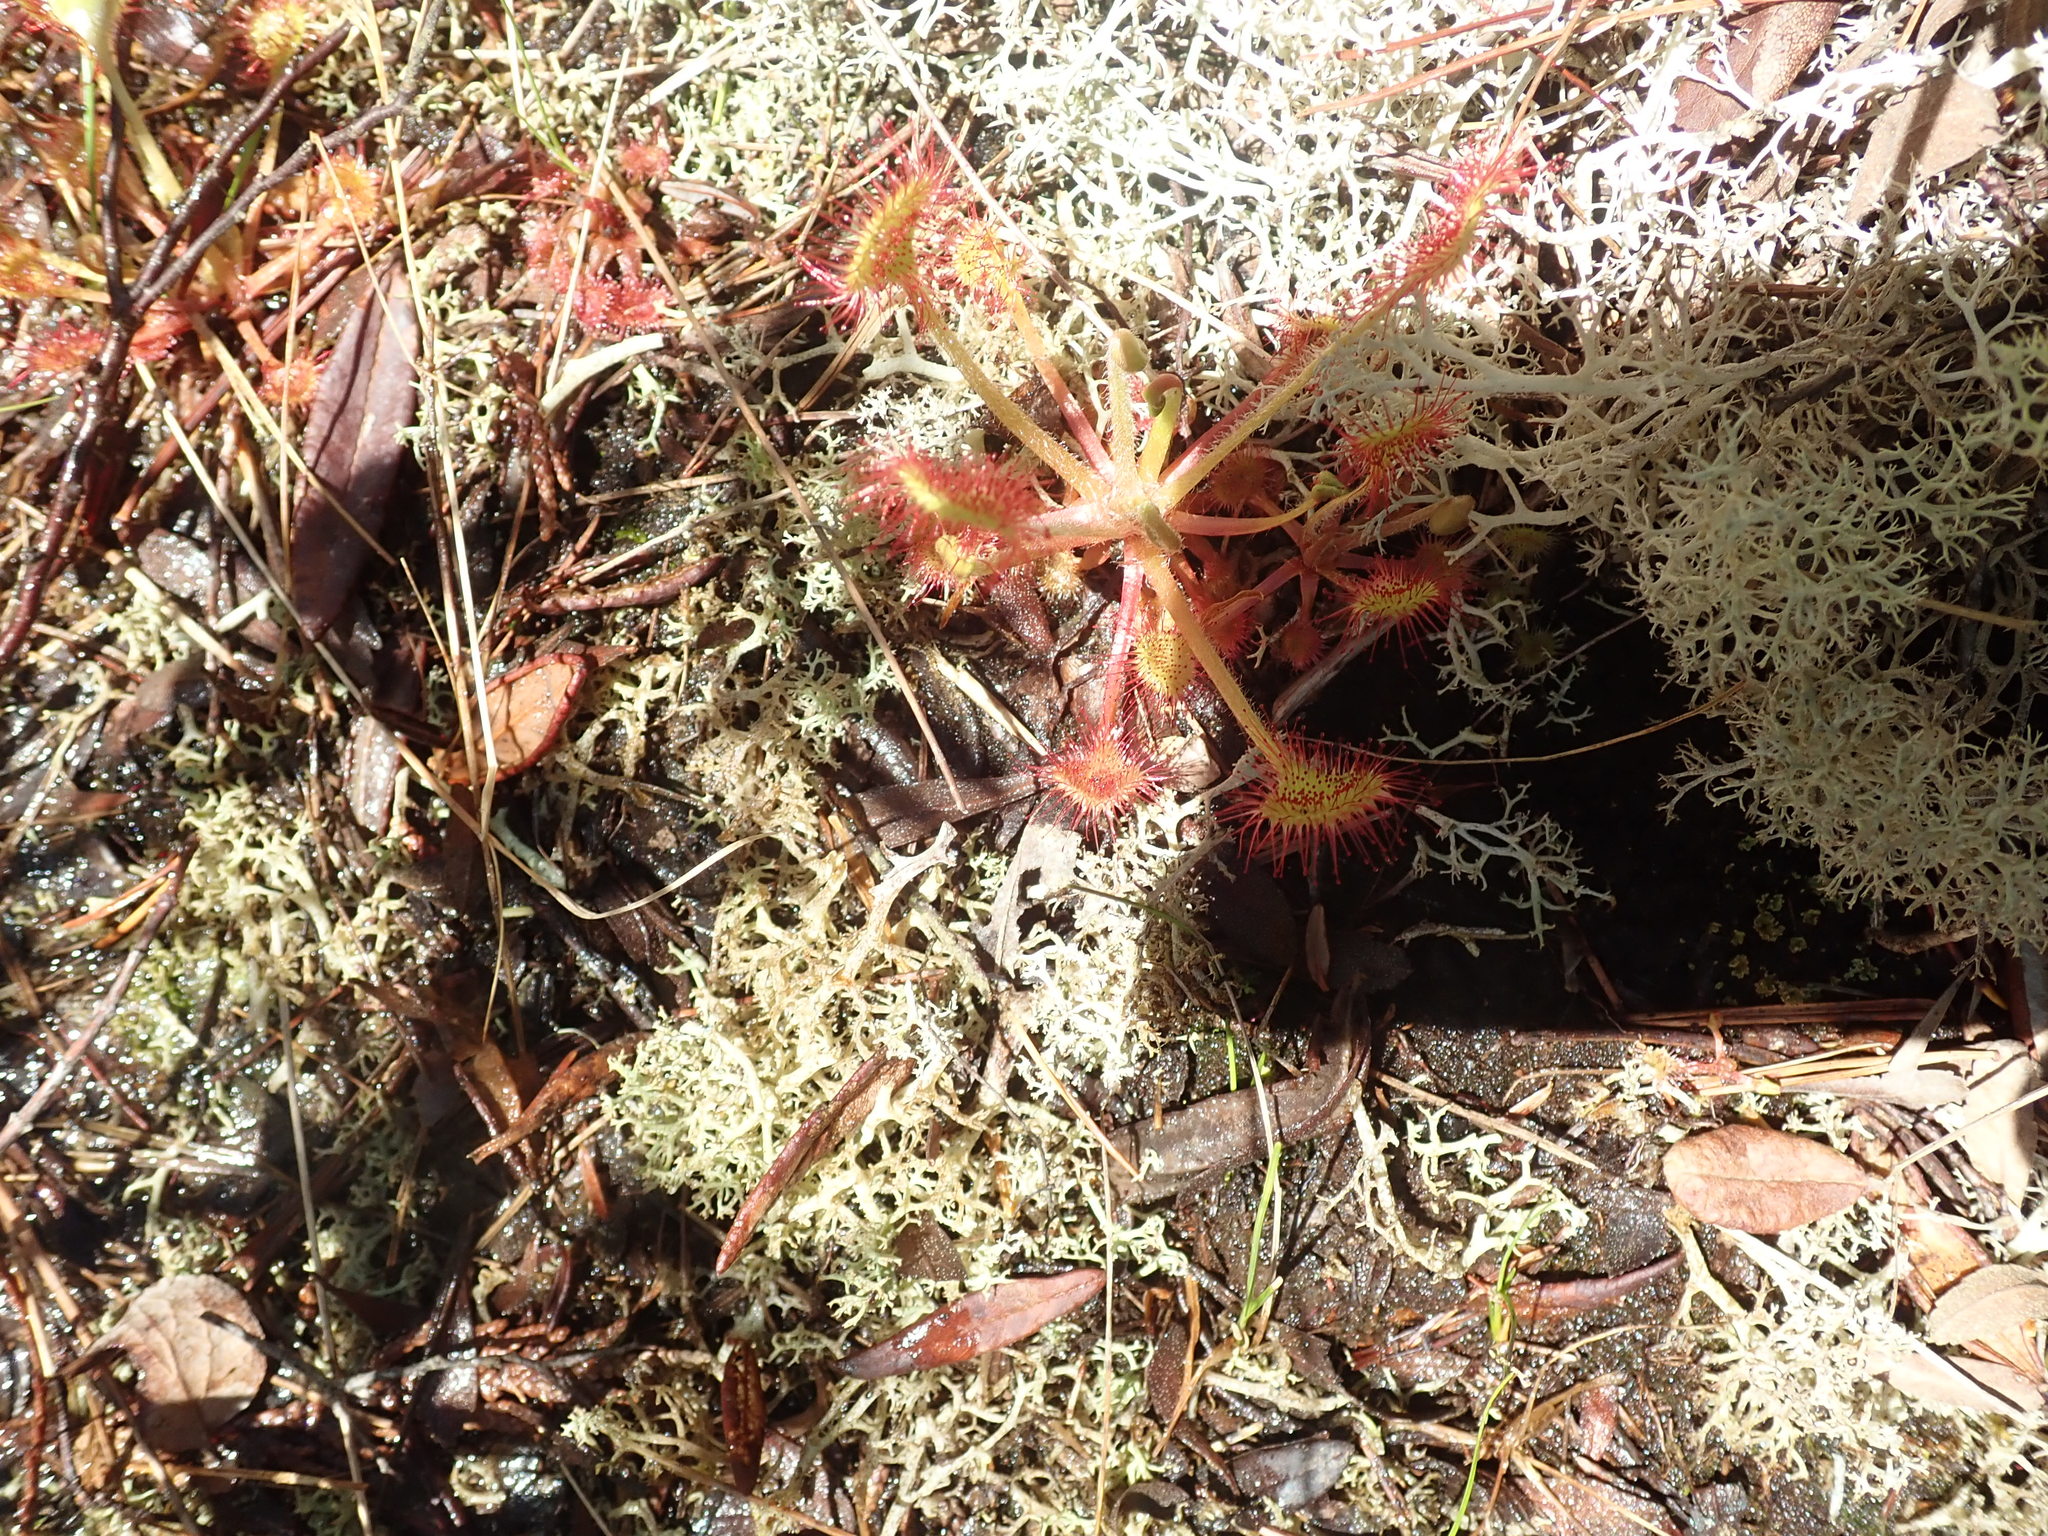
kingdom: Plantae
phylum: Tracheophyta
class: Magnoliopsida
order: Caryophyllales
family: Droseraceae
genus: Drosera
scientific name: Drosera rotundifolia
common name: Round-leaved sundew
